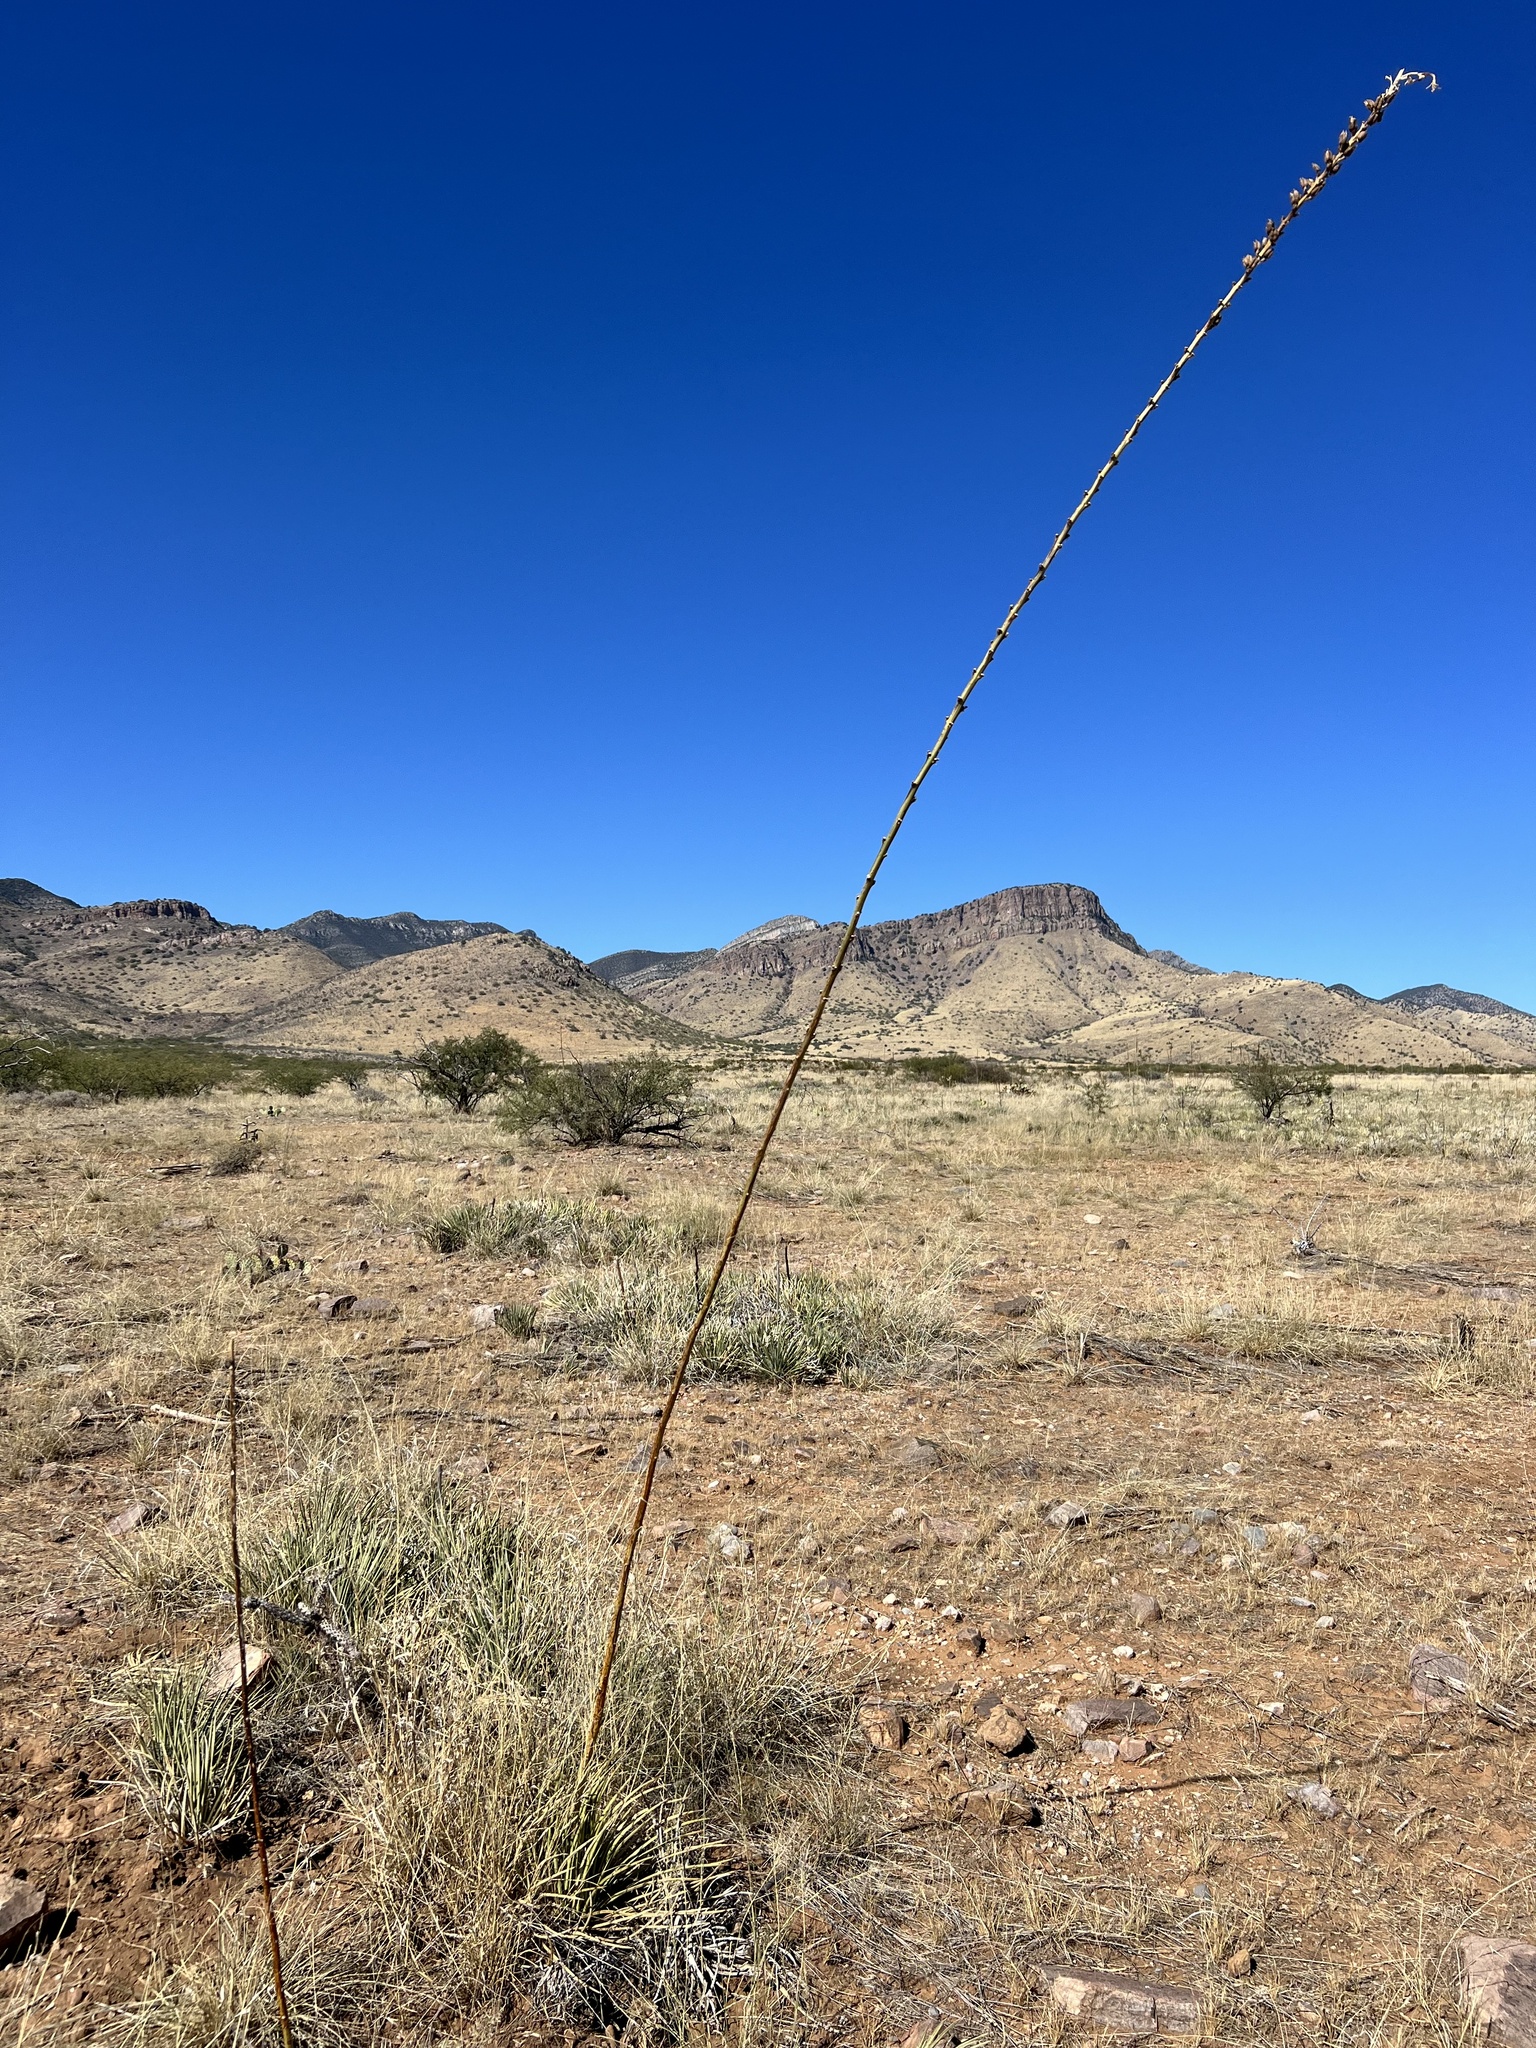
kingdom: Plantae
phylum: Tracheophyta
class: Liliopsida
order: Asparagales
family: Asparagaceae
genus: Agave
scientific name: Agave schottii
